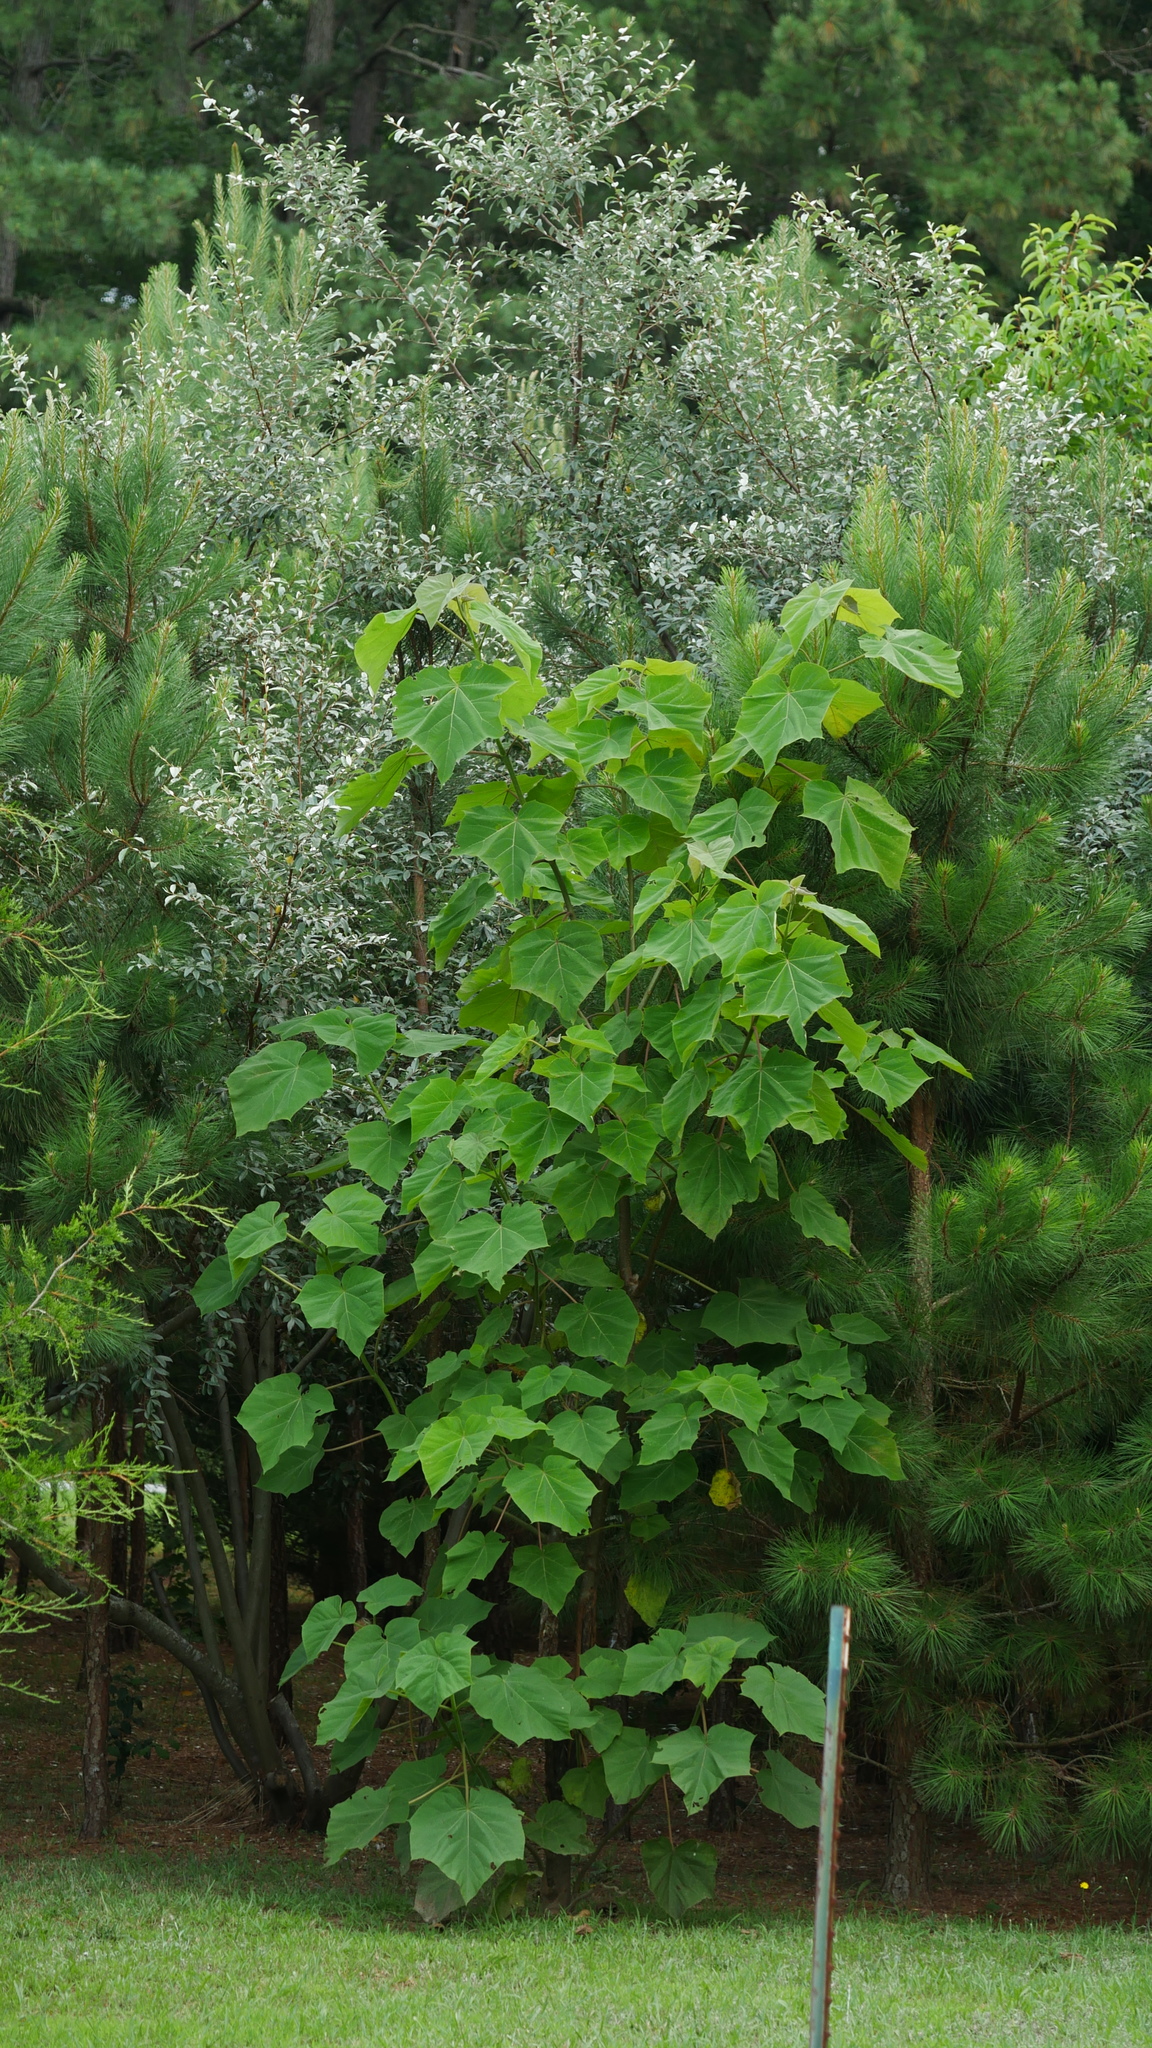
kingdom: Plantae
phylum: Tracheophyta
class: Magnoliopsida
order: Lamiales
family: Paulowniaceae
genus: Paulownia
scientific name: Paulownia tomentosa
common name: Foxglove-tree
